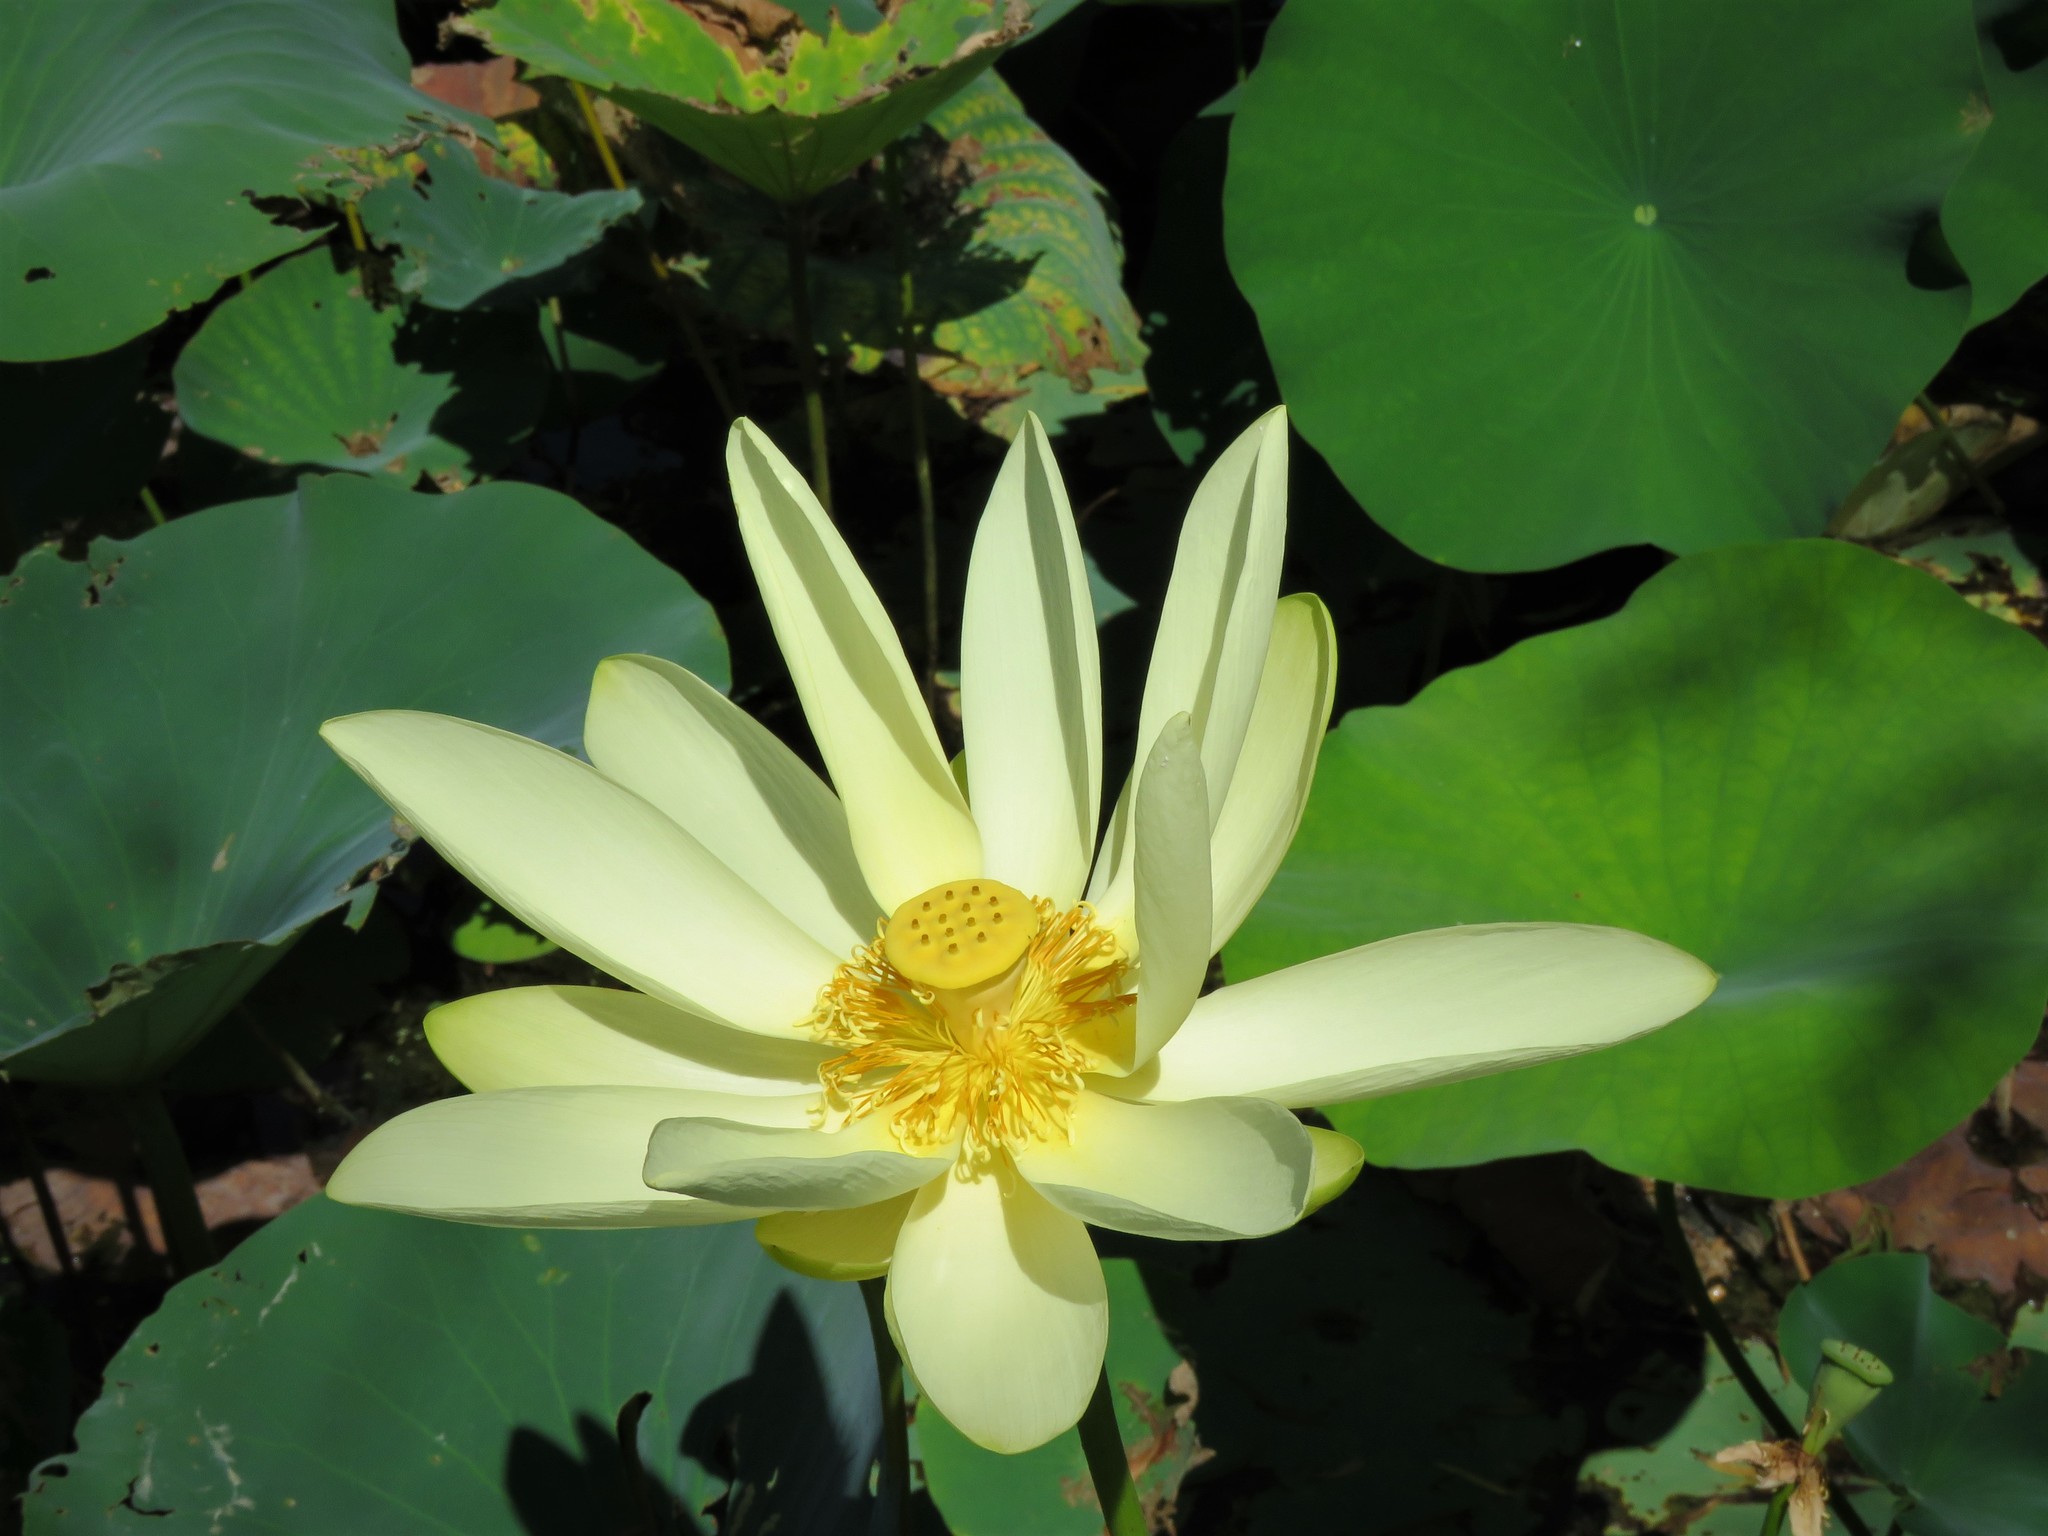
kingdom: Plantae
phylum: Tracheophyta
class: Magnoliopsida
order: Proteales
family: Nelumbonaceae
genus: Nelumbo
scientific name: Nelumbo lutea
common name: American lotus
